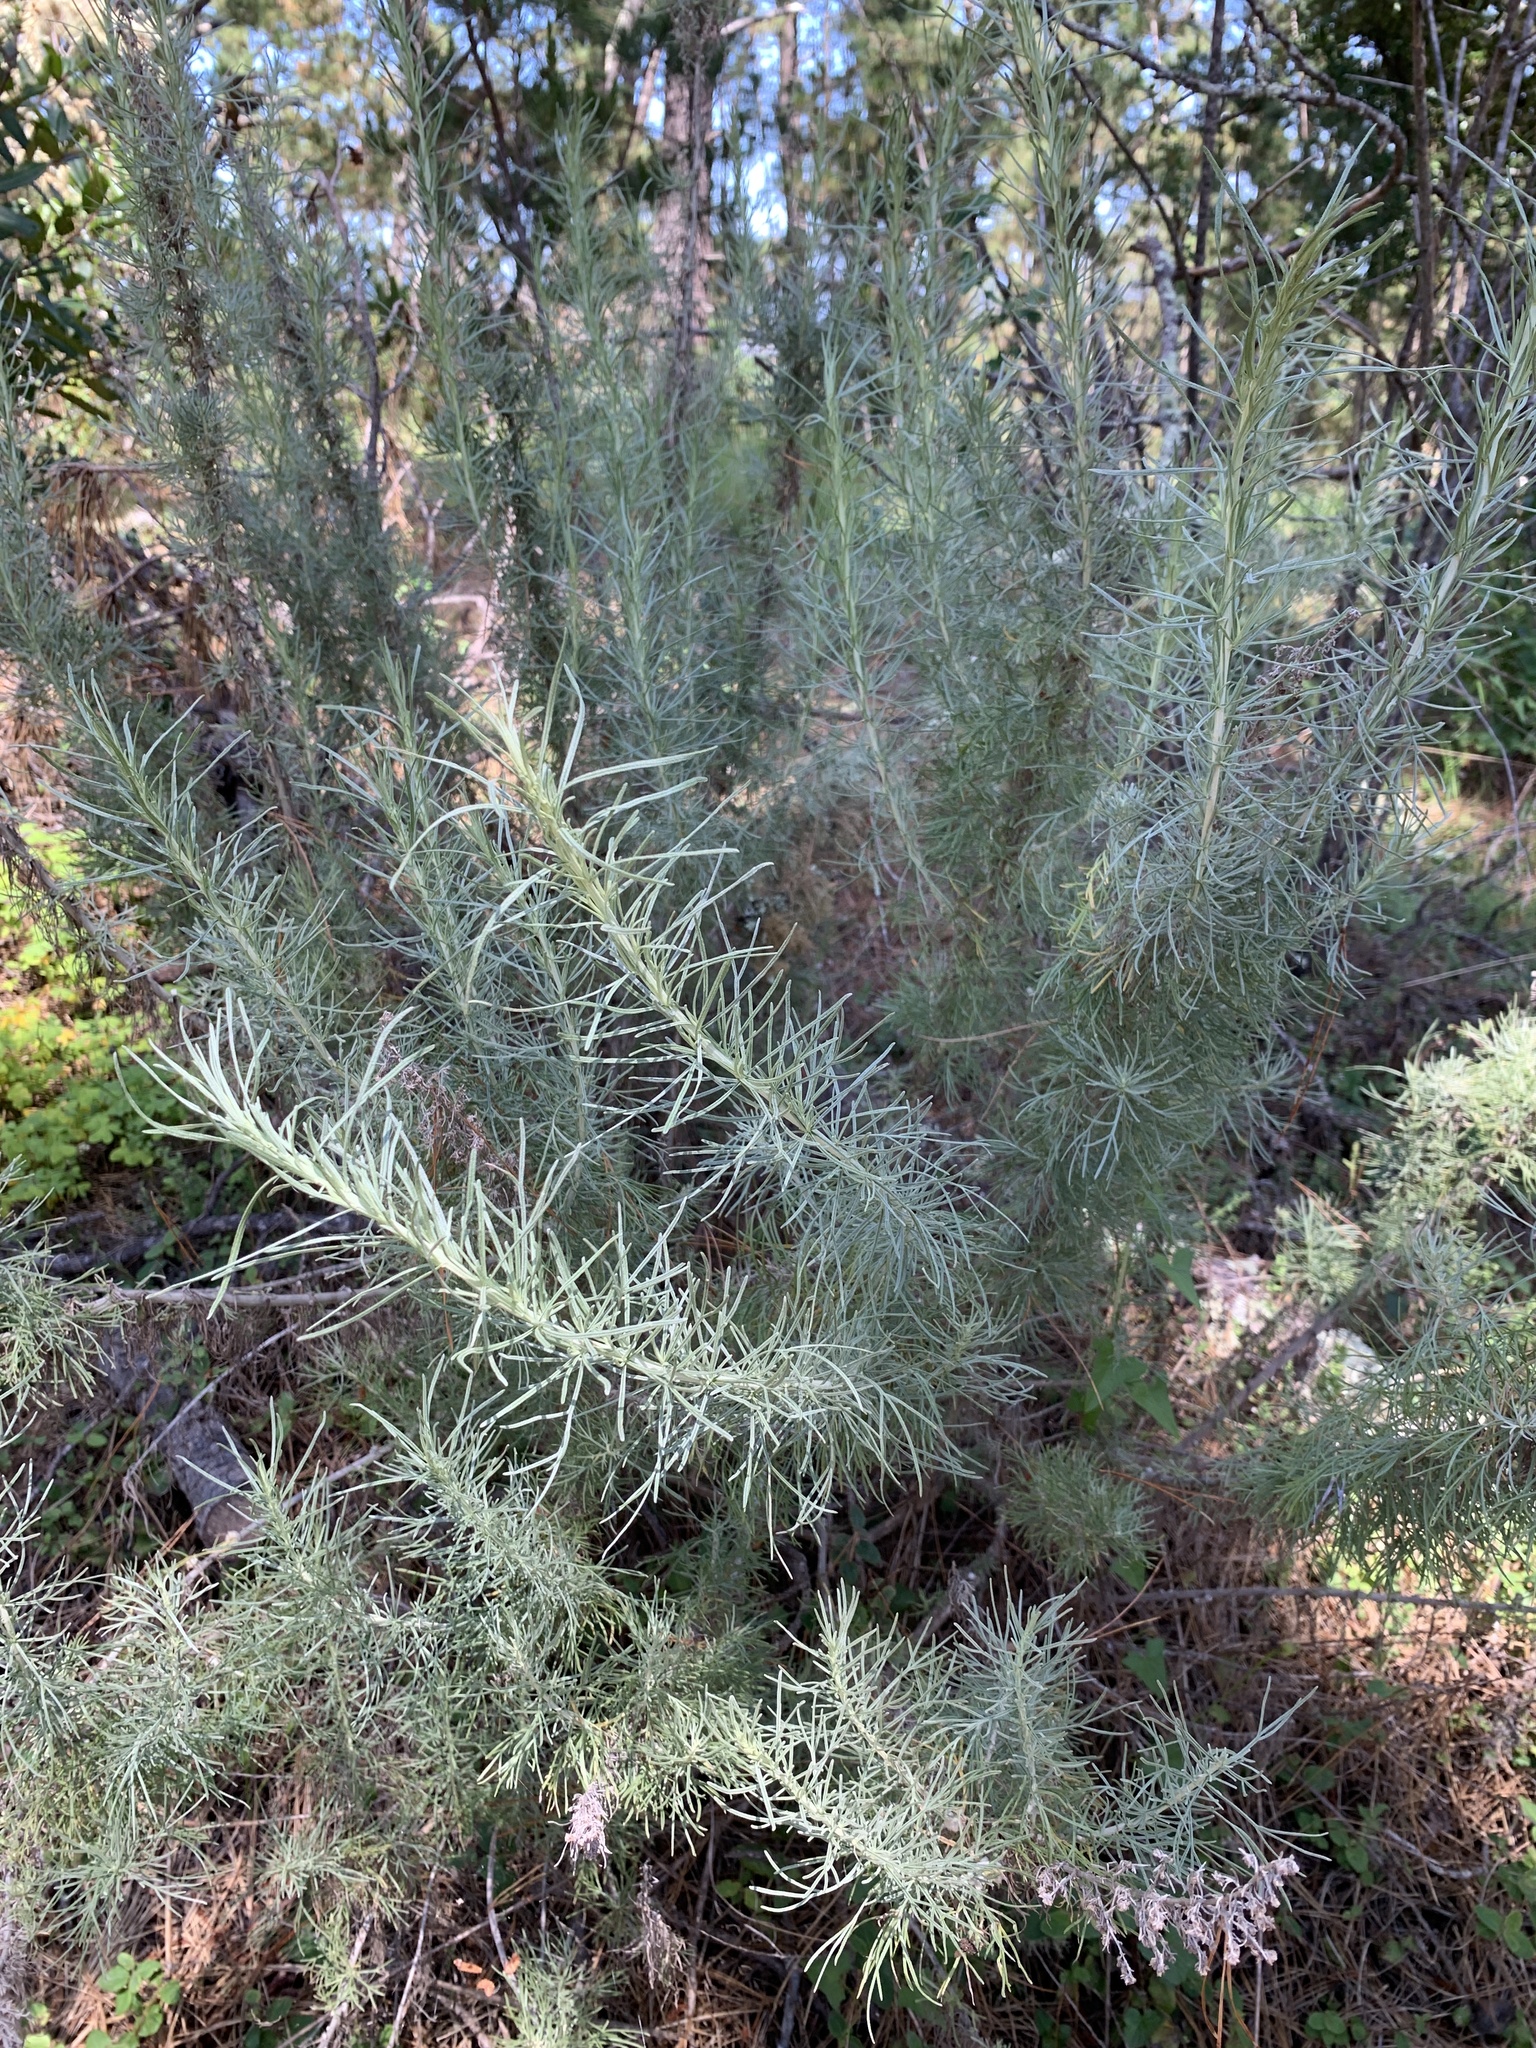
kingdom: Plantae
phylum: Tracheophyta
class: Magnoliopsida
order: Asterales
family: Asteraceae
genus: Artemisia
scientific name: Artemisia californica
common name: California sagebrush
